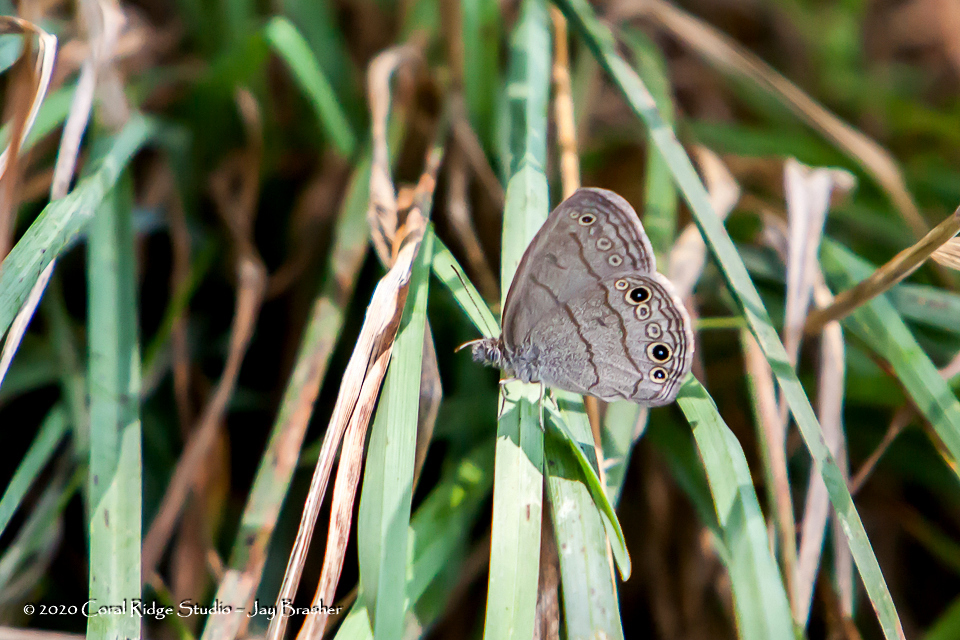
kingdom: Animalia
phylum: Arthropoda
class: Insecta
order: Lepidoptera
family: Nymphalidae
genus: Hermeuptychia
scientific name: Hermeuptychia hermes
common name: Hermes satyr
